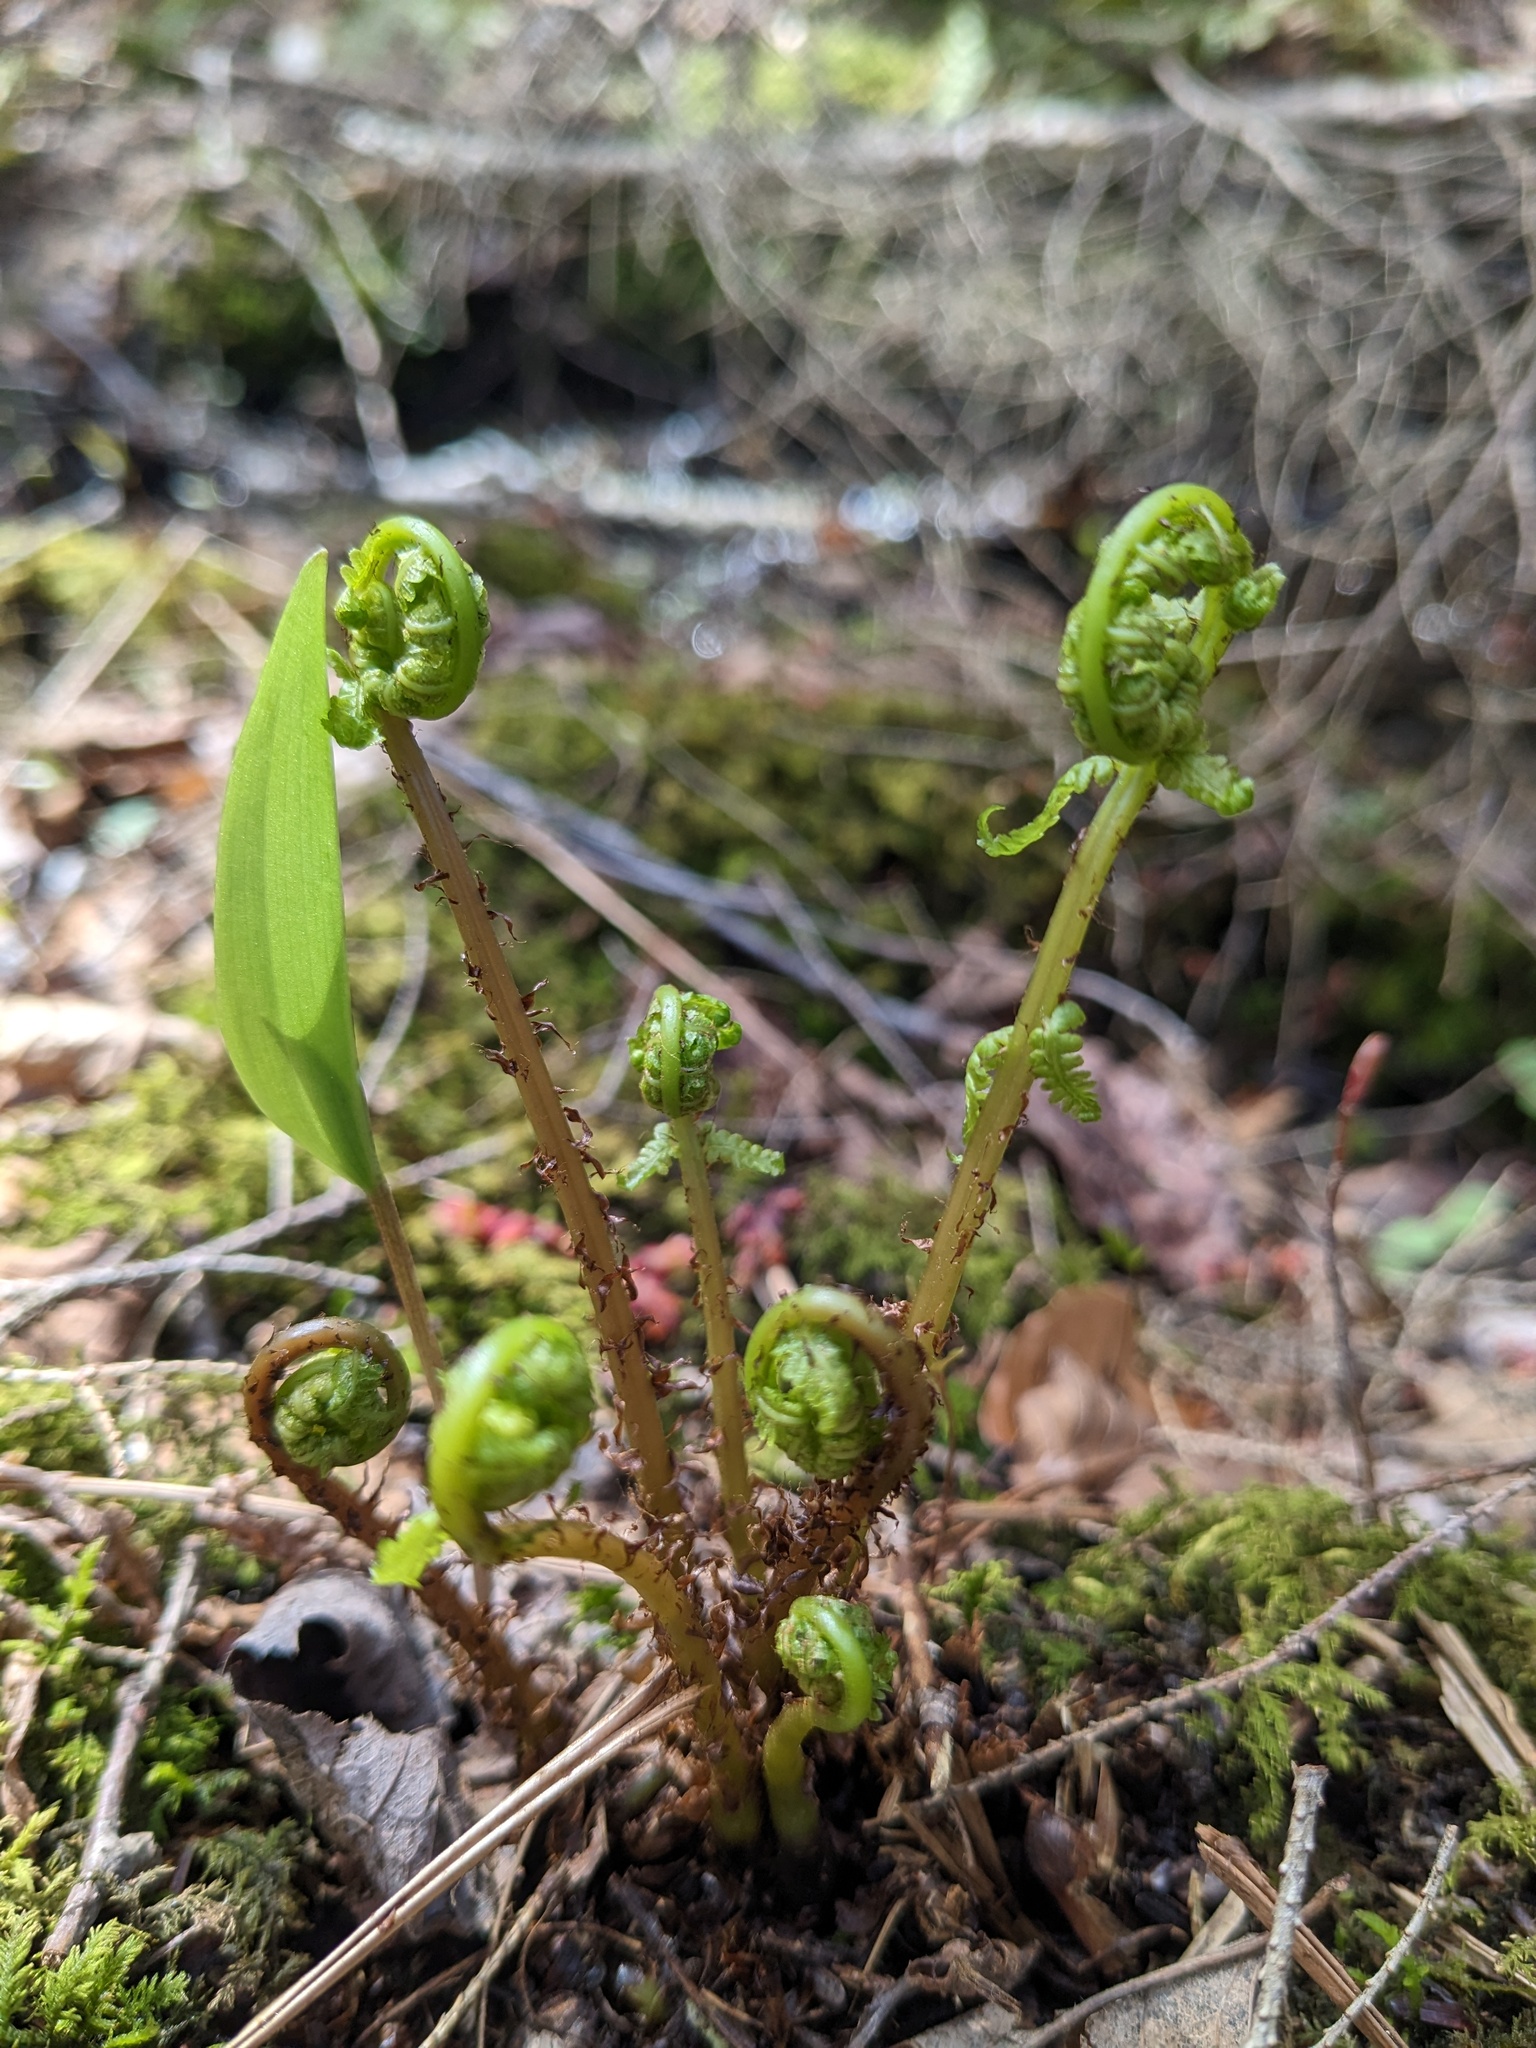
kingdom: Plantae
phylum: Tracheophyta
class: Polypodiopsida
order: Polypodiales
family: Athyriaceae
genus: Athyrium
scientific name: Athyrium angustum
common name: Northern lady fern
